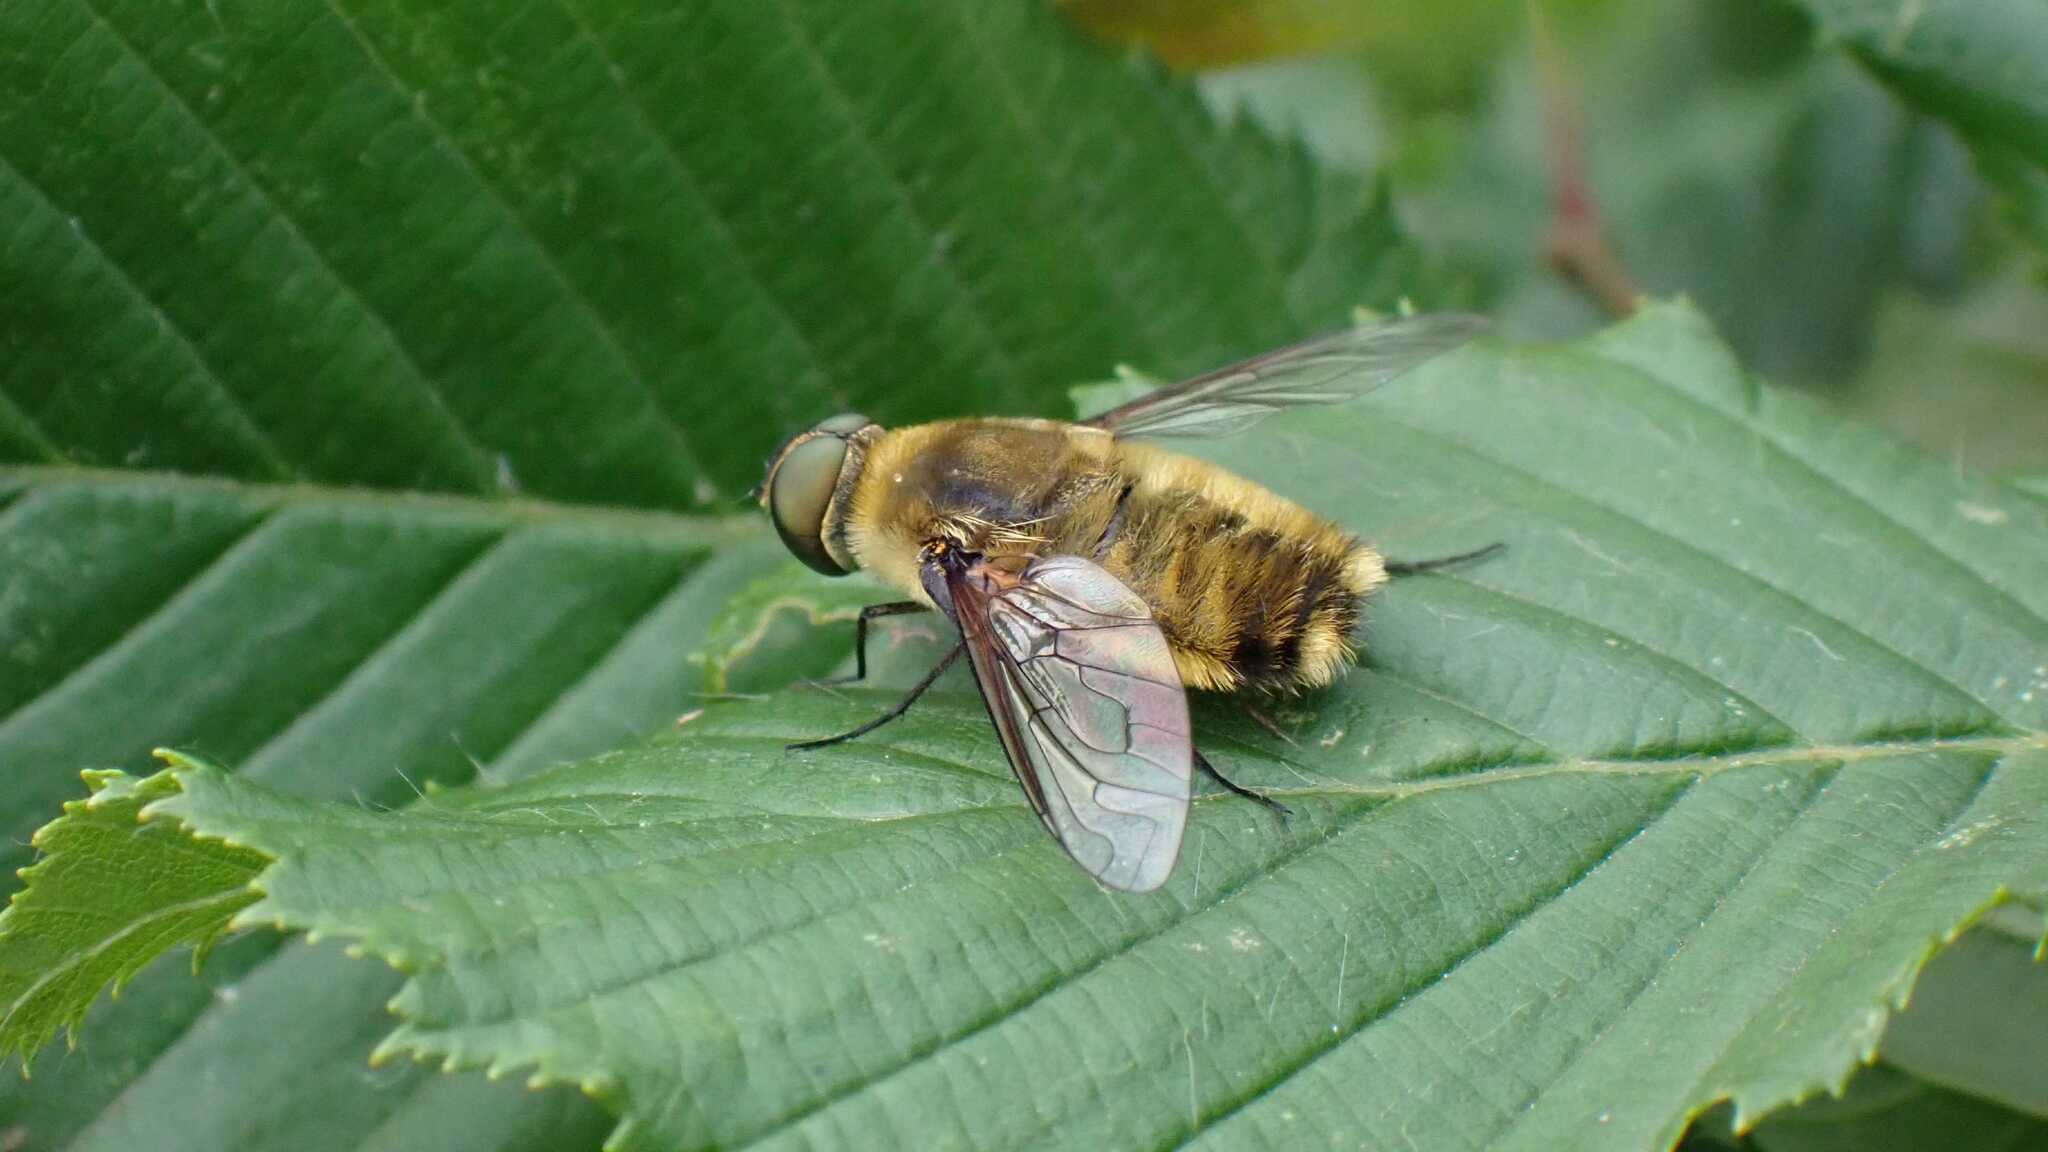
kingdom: Animalia
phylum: Arthropoda
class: Insecta
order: Diptera
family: Bombyliidae
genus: Villa
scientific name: Villa hottentotta
